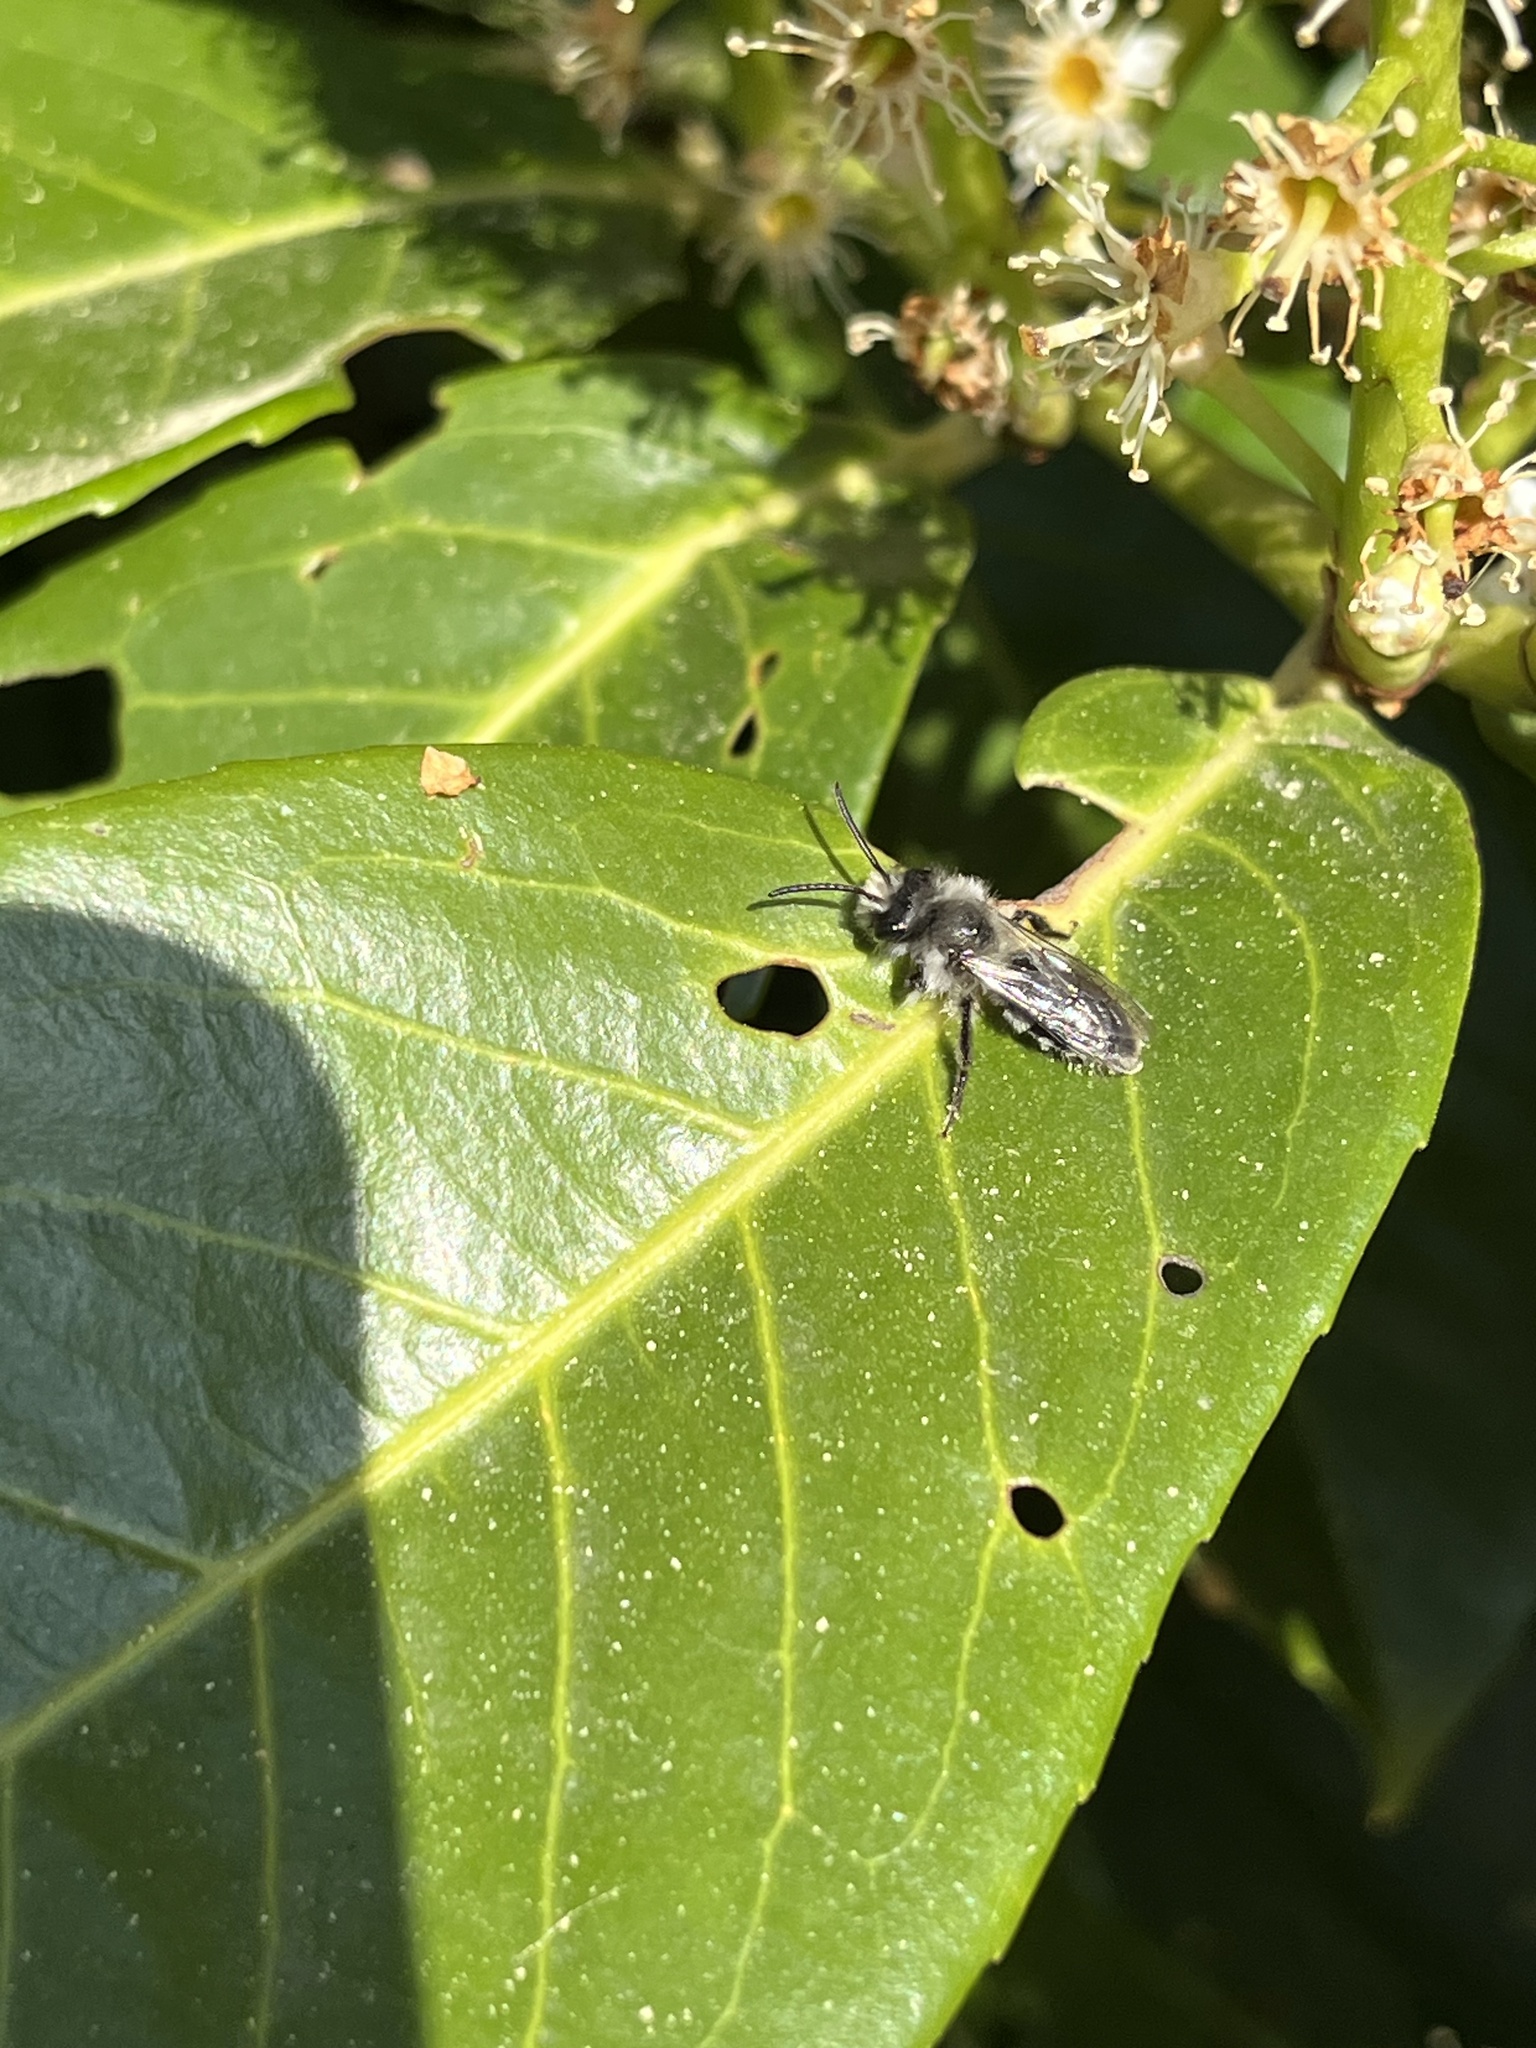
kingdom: Animalia
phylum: Arthropoda
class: Insecta
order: Hymenoptera
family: Andrenidae
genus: Andrena
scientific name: Andrena cineraria
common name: Ashy mining bee
